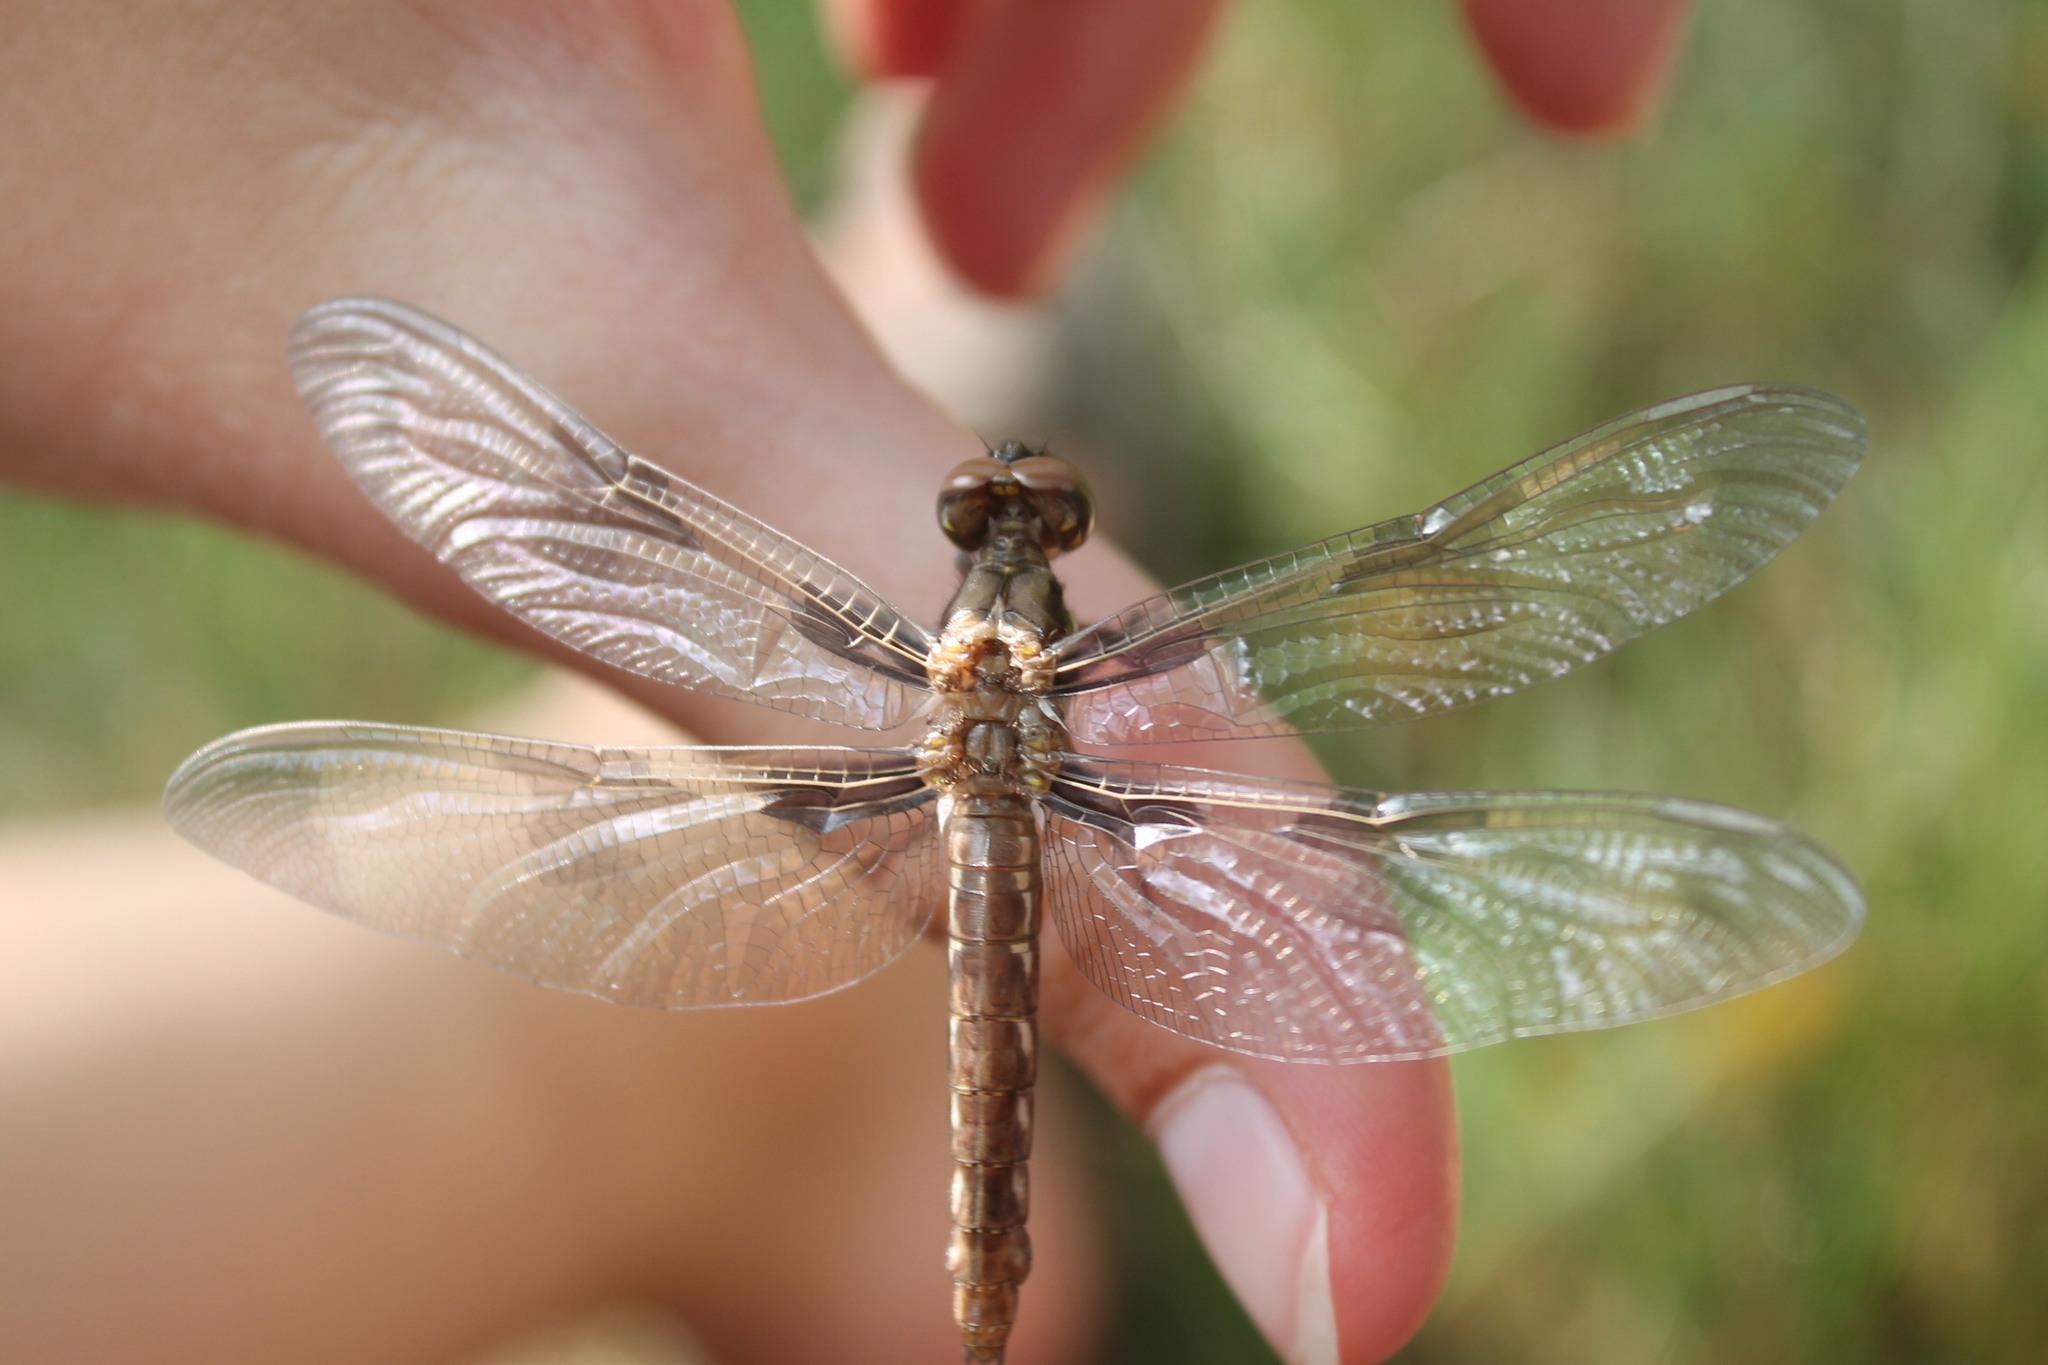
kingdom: Animalia
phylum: Arthropoda
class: Insecta
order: Odonata
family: Libellulidae
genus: Plathemis
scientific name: Plathemis lydia
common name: Common whitetail
